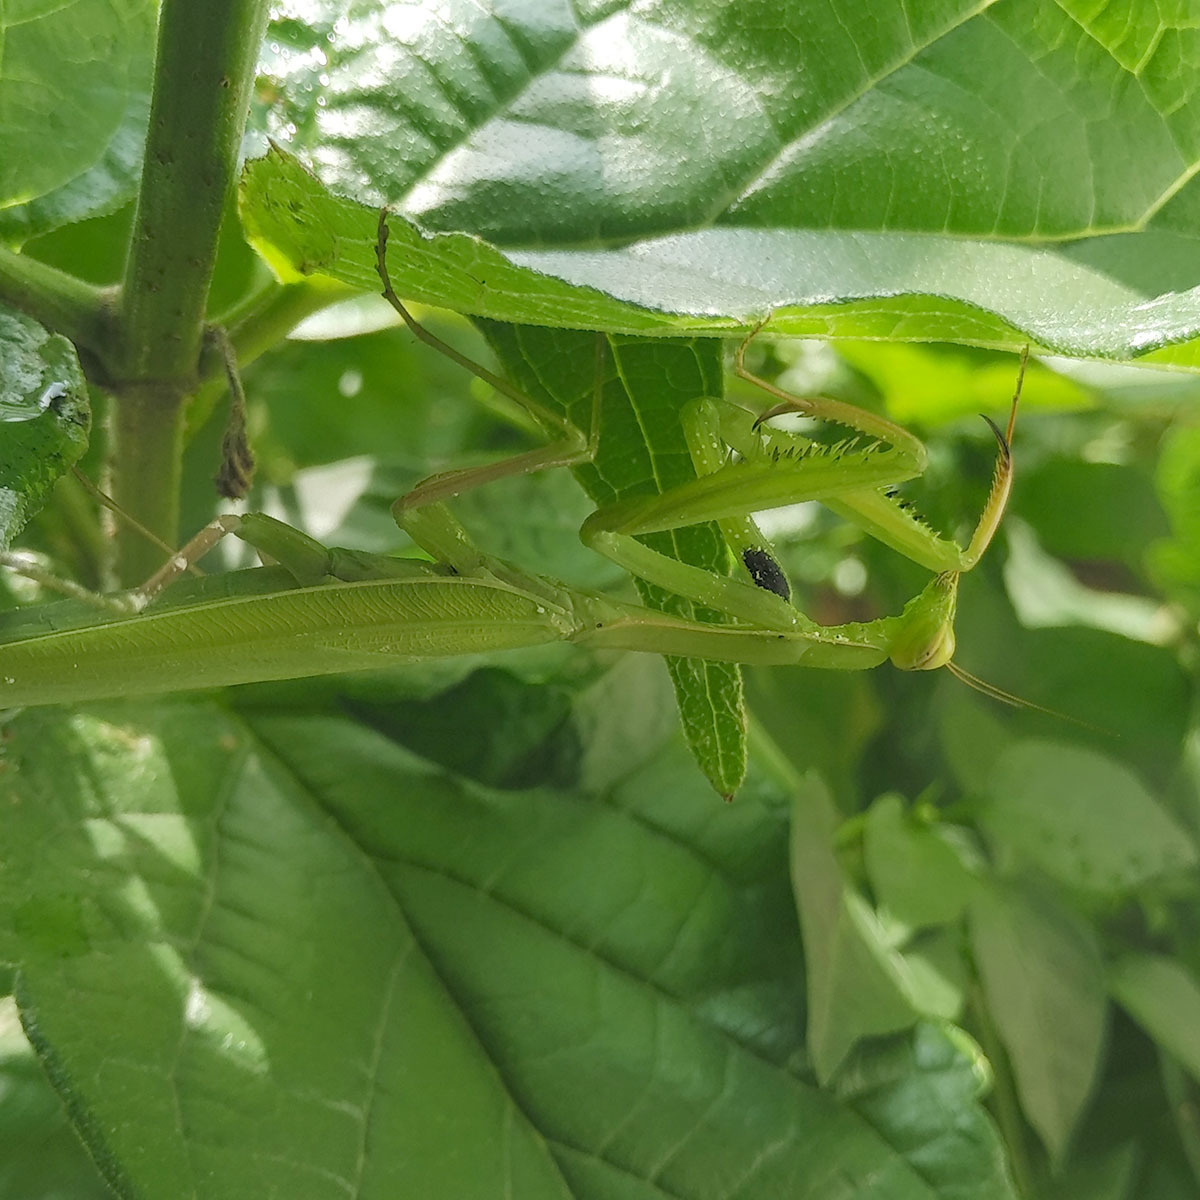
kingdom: Animalia
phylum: Arthropoda
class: Insecta
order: Mantodea
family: Mantidae
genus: Mantis
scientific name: Mantis religiosa
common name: Praying mantis
